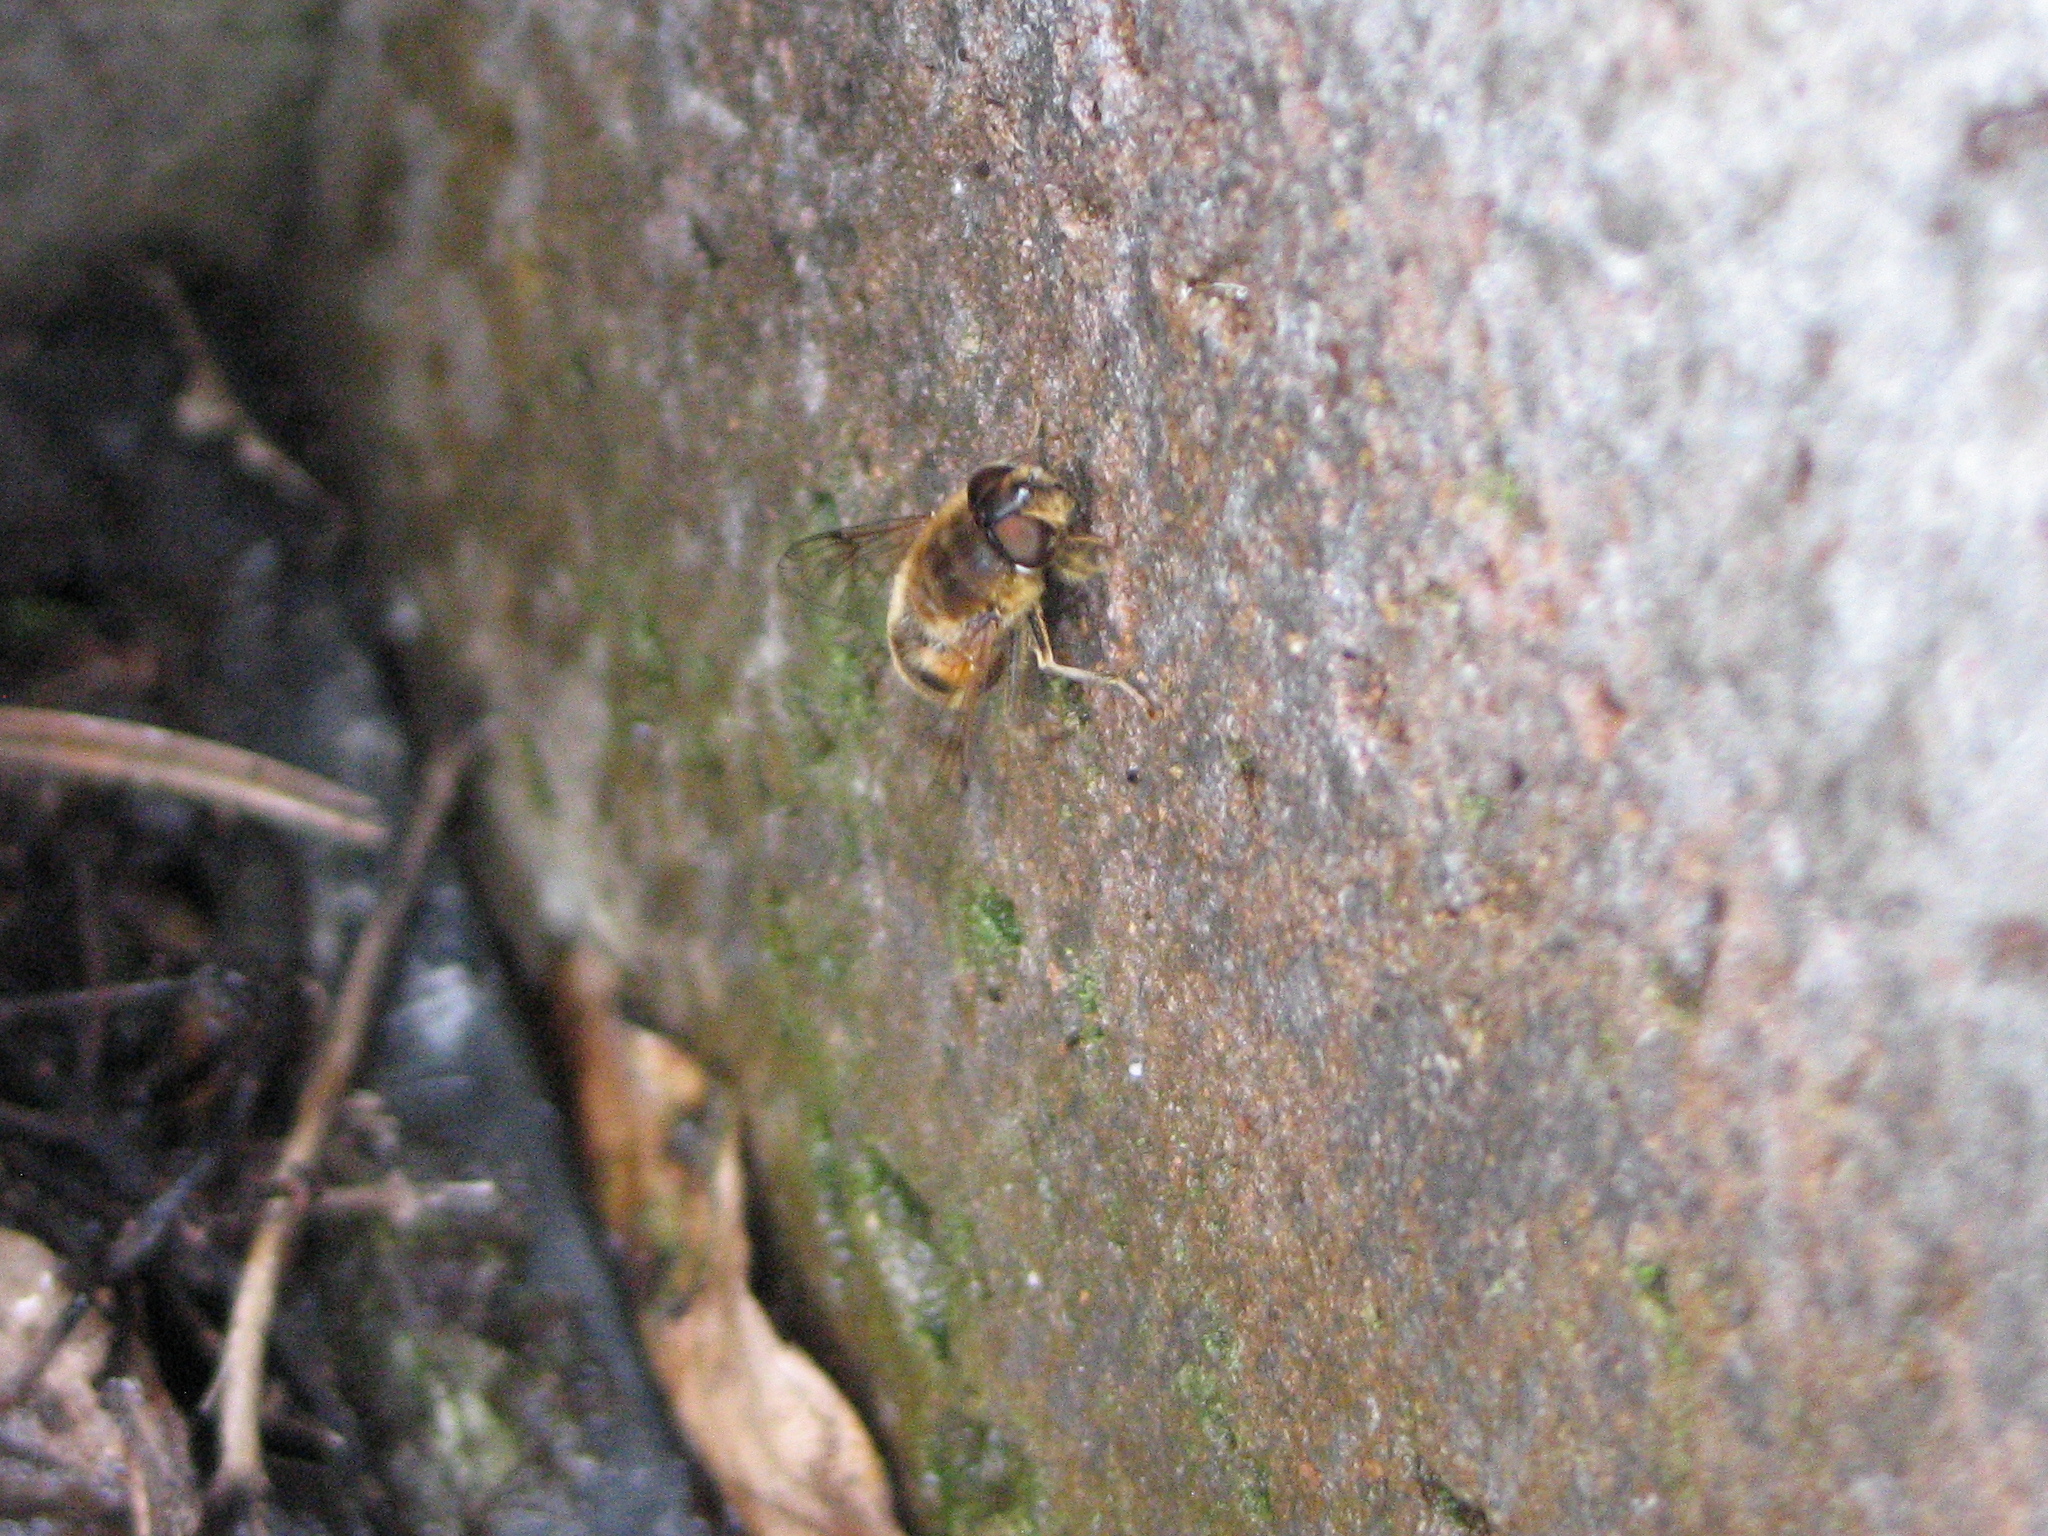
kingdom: Animalia
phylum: Arthropoda
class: Insecta
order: Diptera
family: Syrphidae
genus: Eristalis
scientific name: Eristalis tenax
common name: Drone fly
